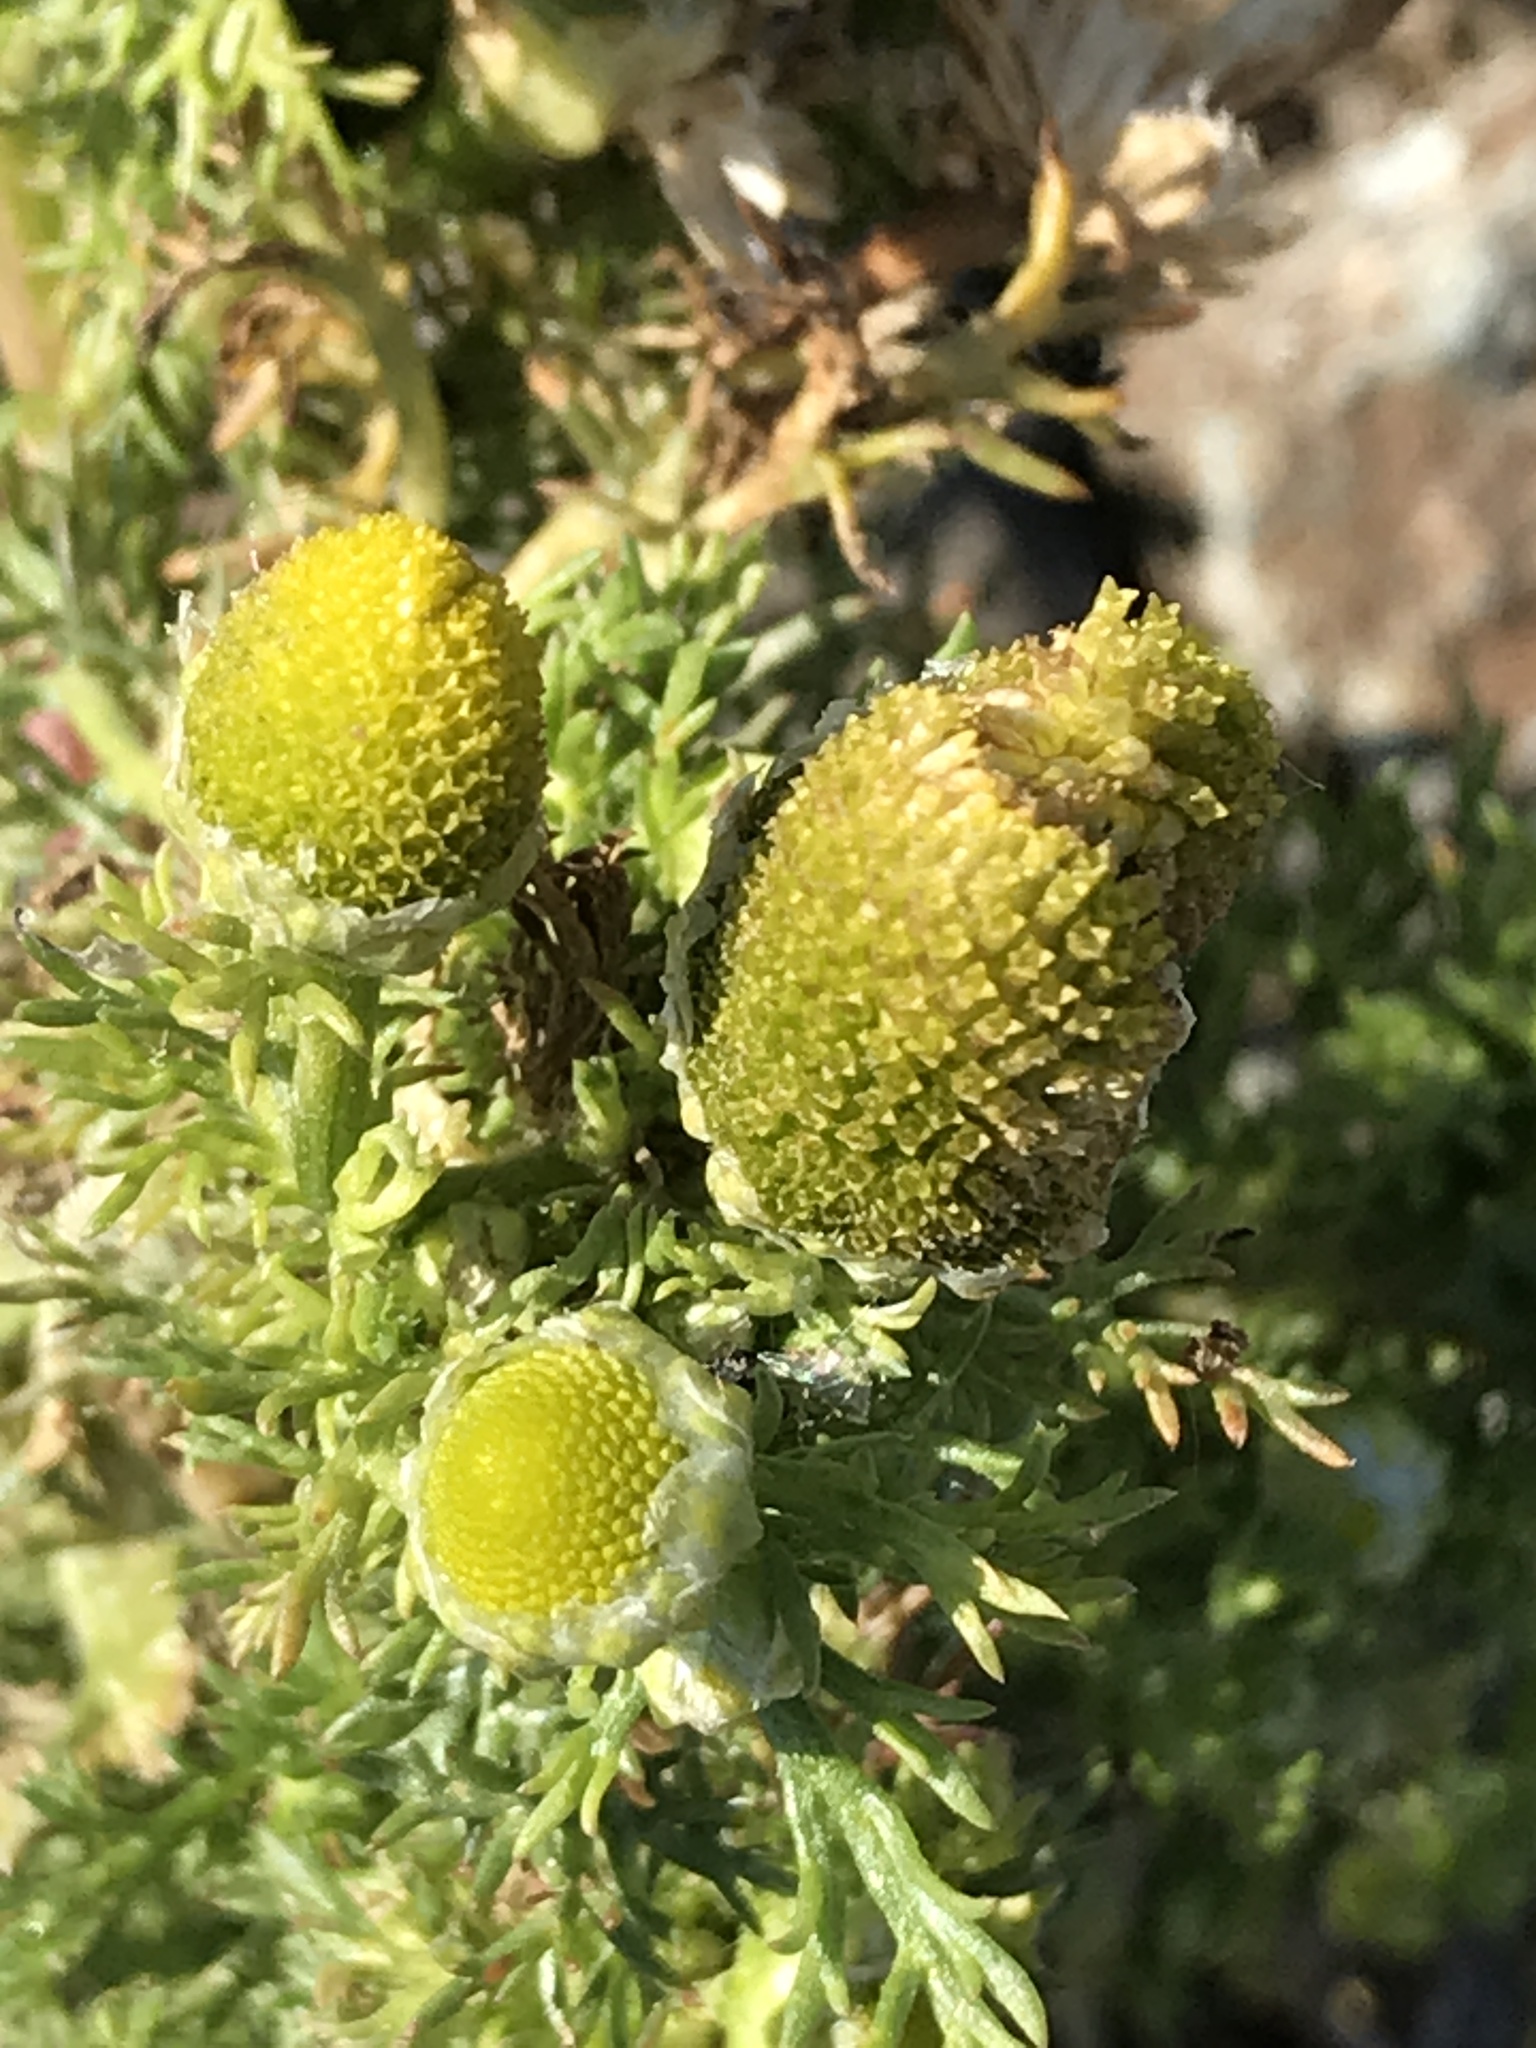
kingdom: Plantae
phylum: Tracheophyta
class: Magnoliopsida
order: Asterales
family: Asteraceae
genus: Matricaria
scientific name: Matricaria discoidea
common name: Disc mayweed
